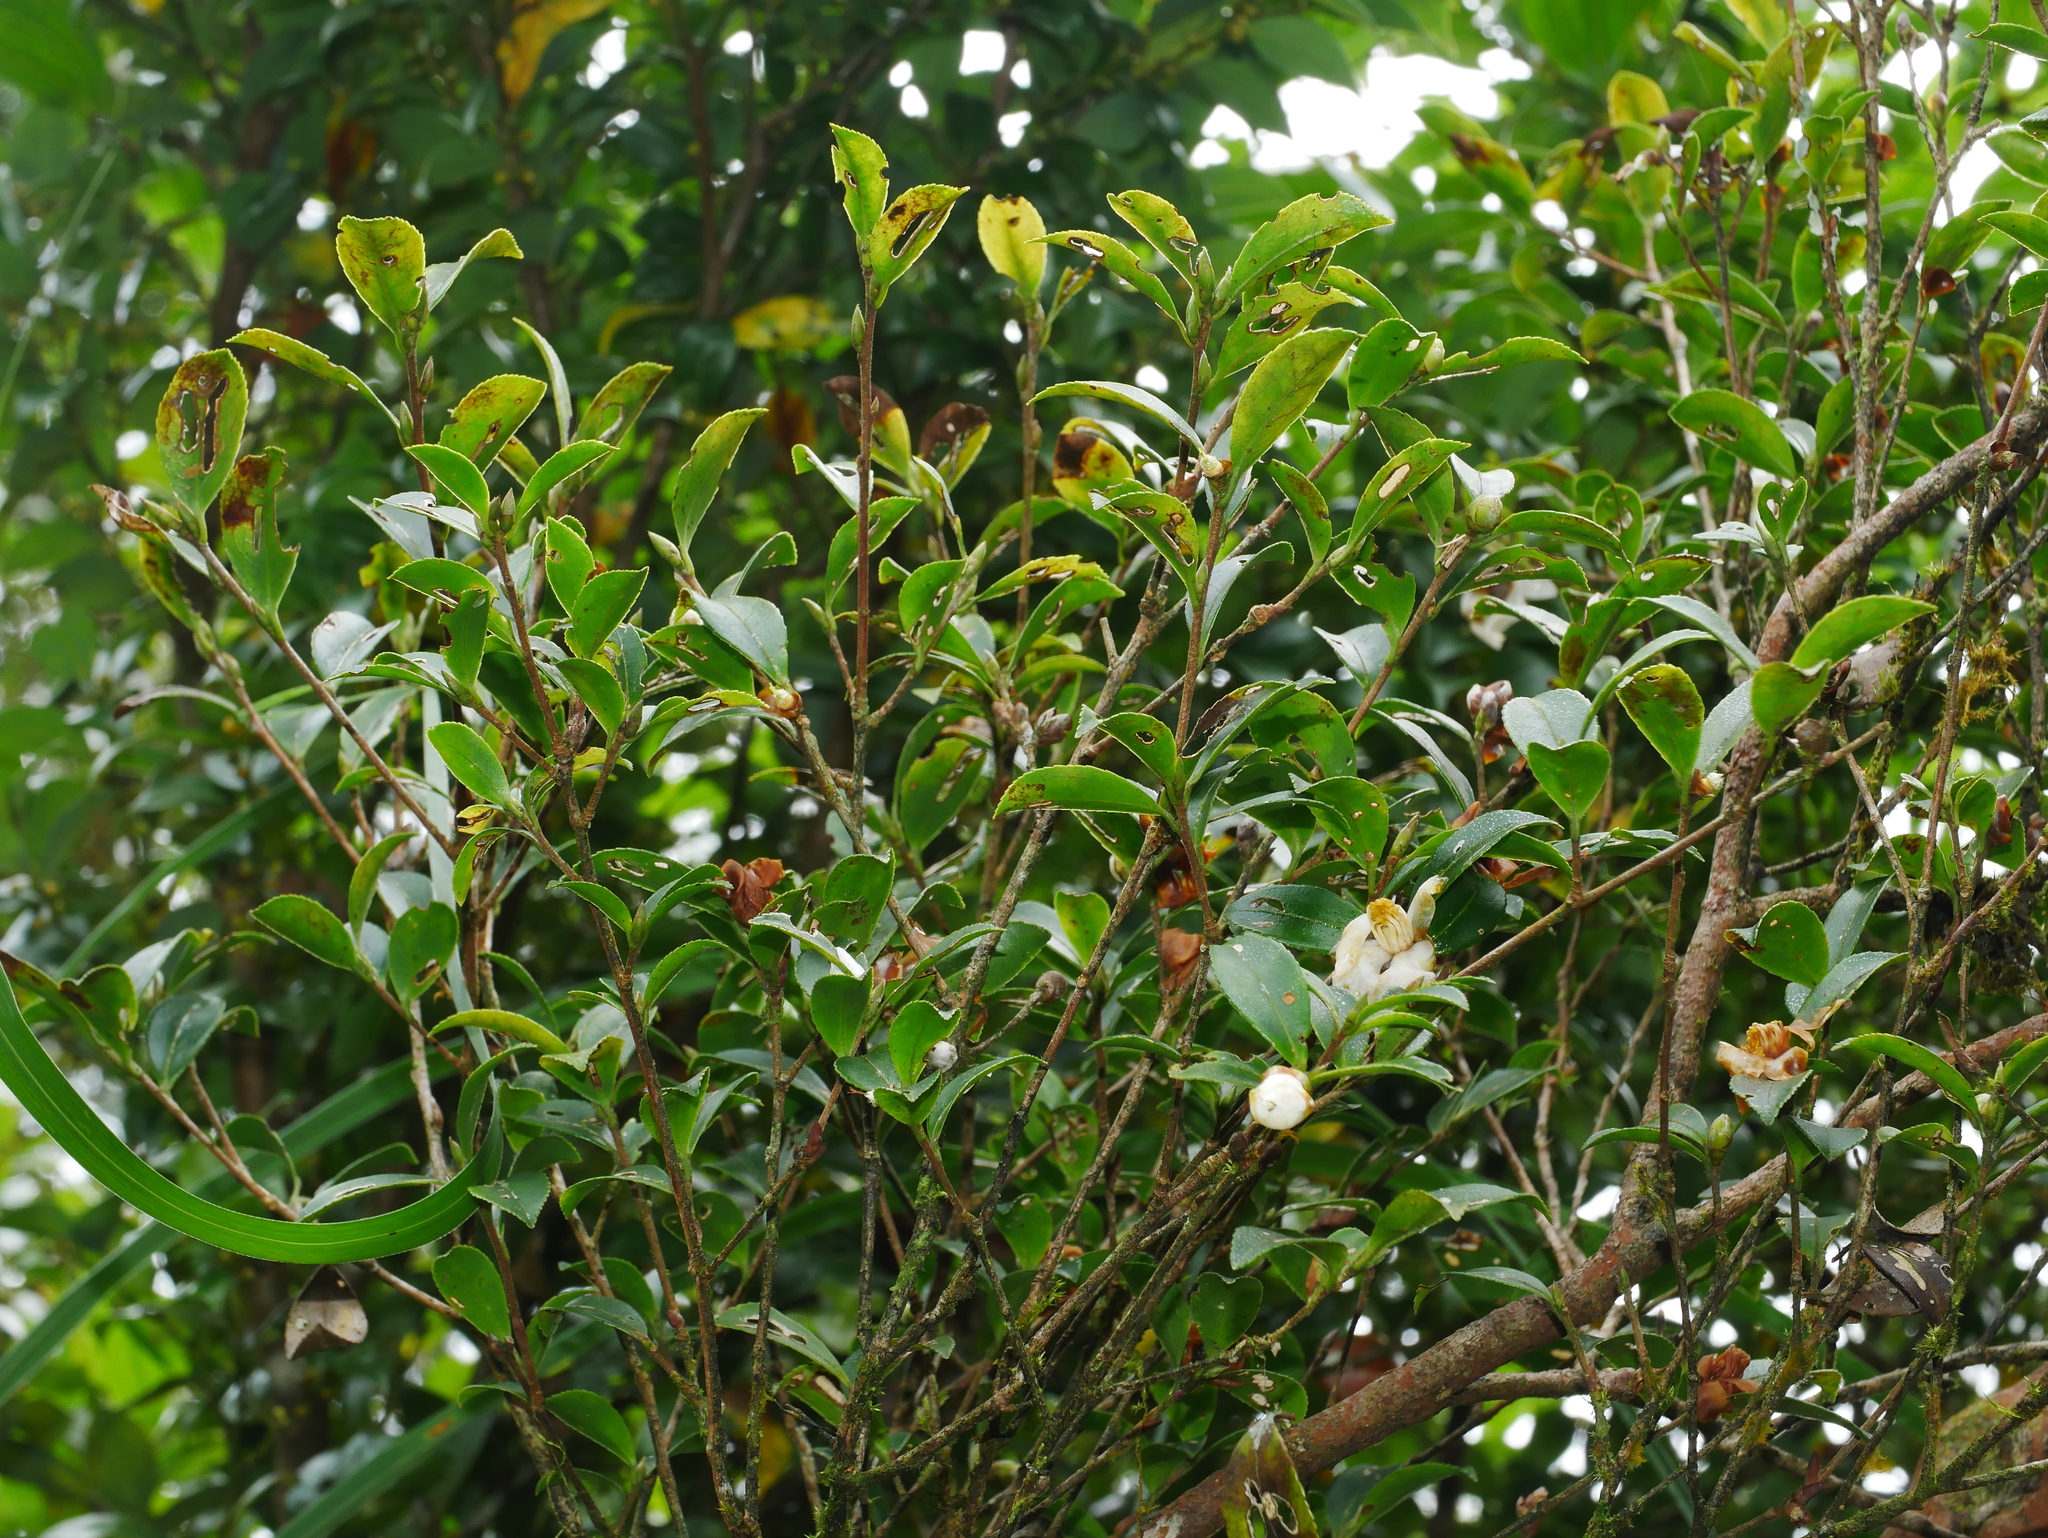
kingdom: Plantae
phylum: Tracheophyta
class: Magnoliopsida
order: Ericales
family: Theaceae
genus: Camellia
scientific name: Camellia brevistyla
